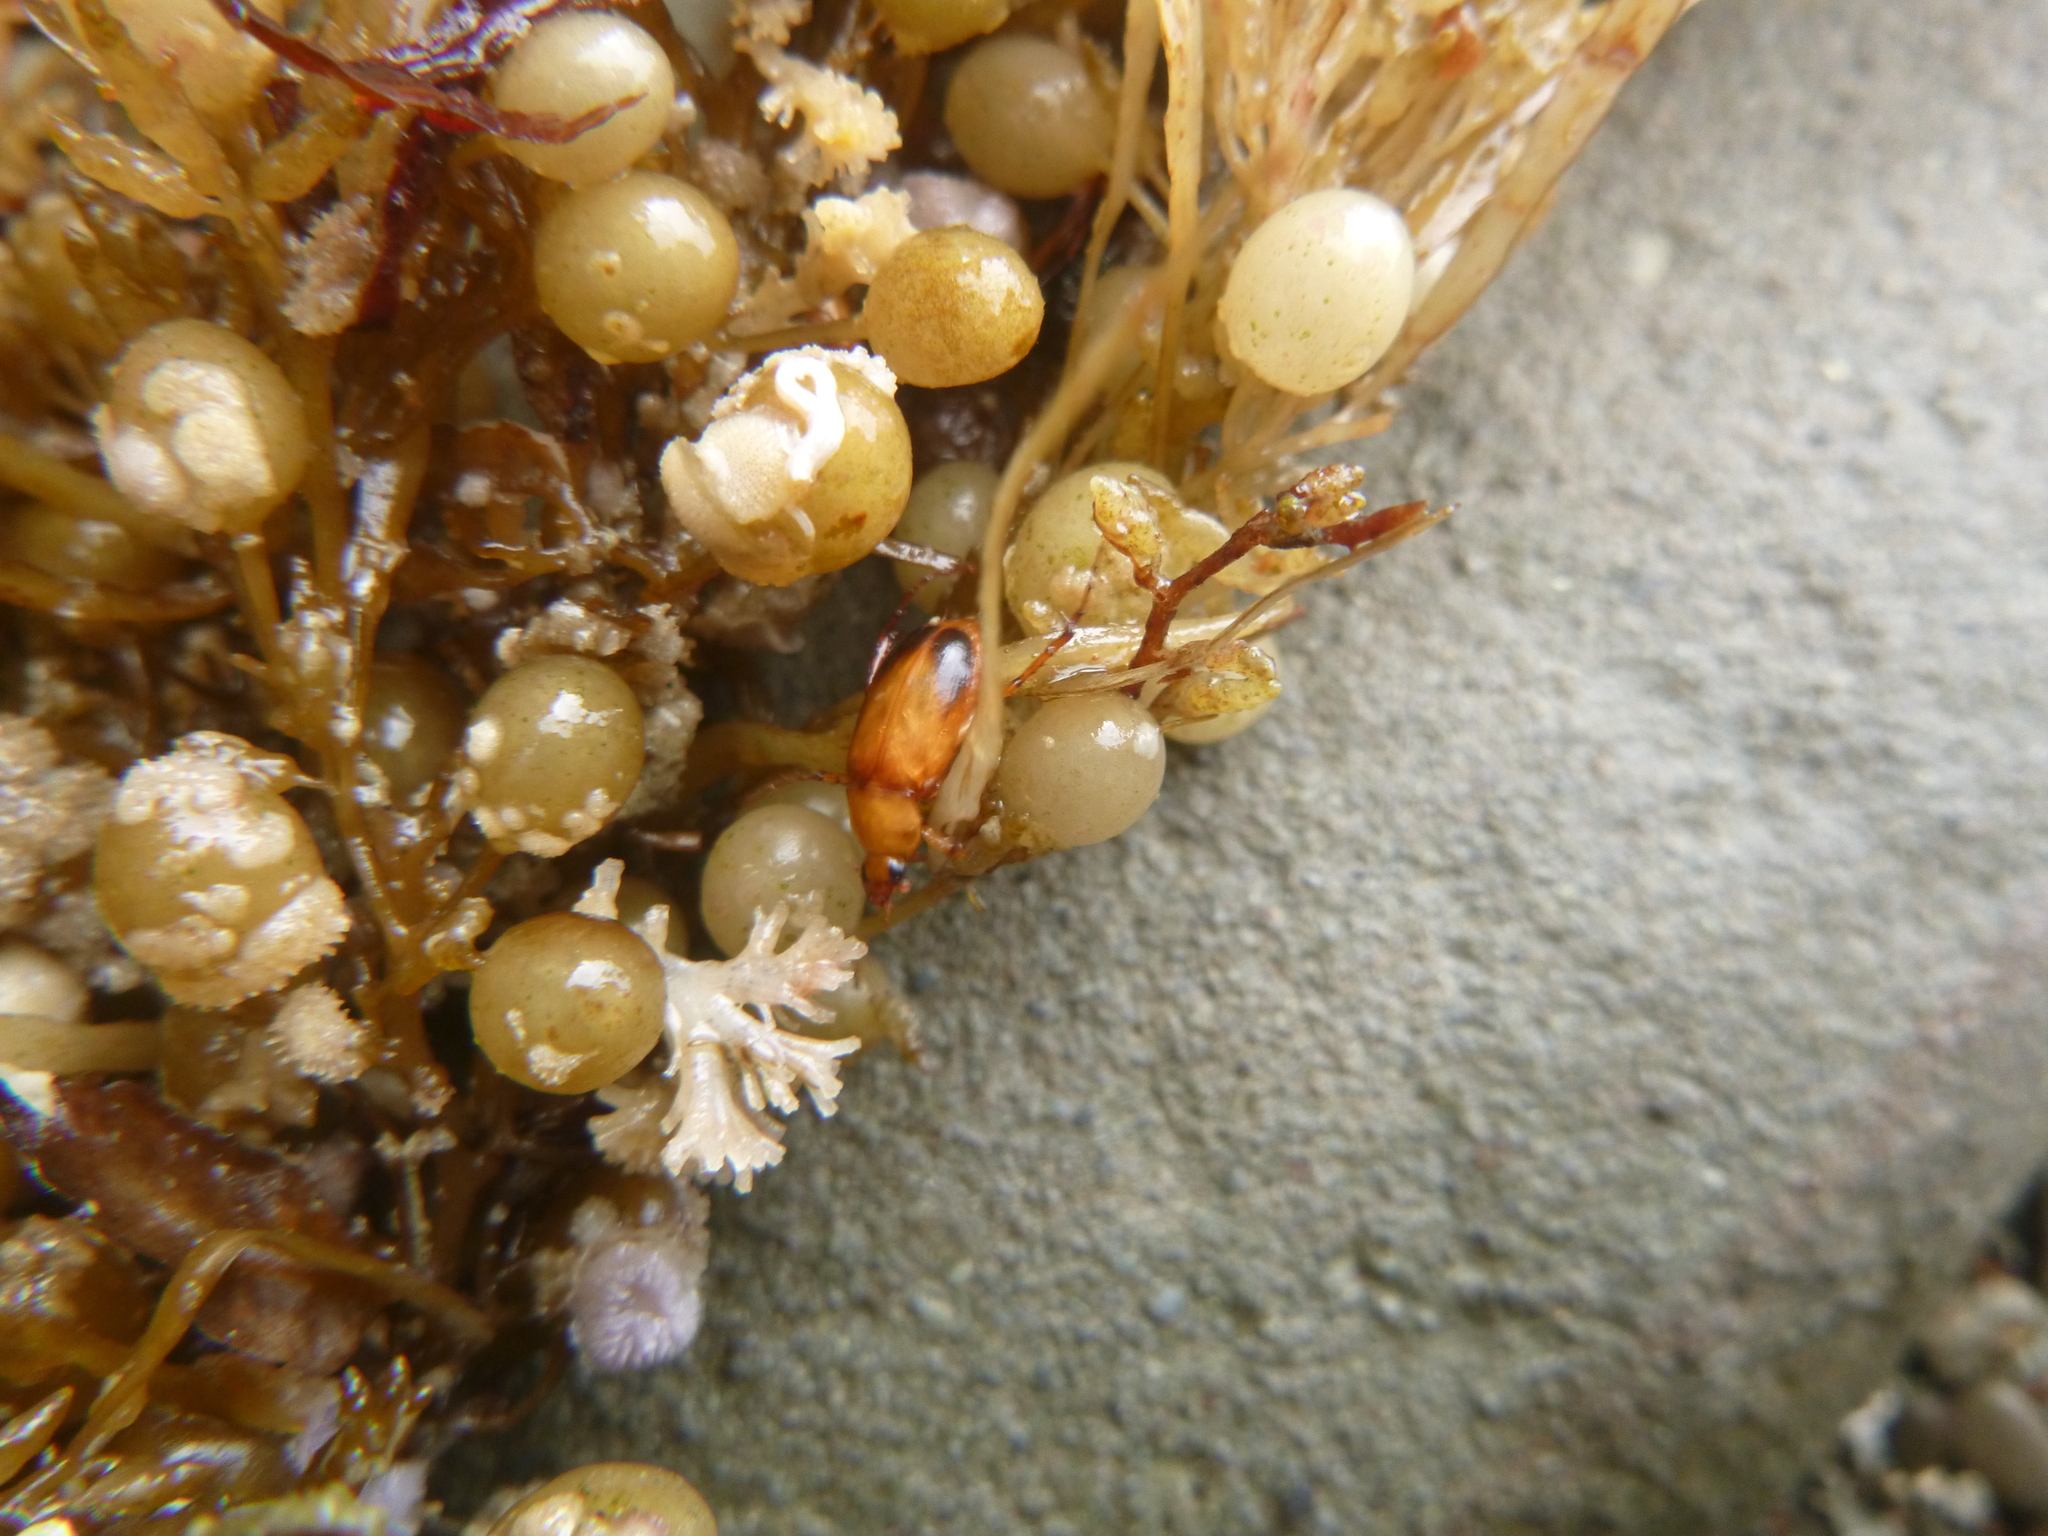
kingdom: Animalia
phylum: Arthropoda
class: Insecta
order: Coleoptera
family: Scarabaeidae
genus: Phyllotocus
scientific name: Phyllotocus macleayi
